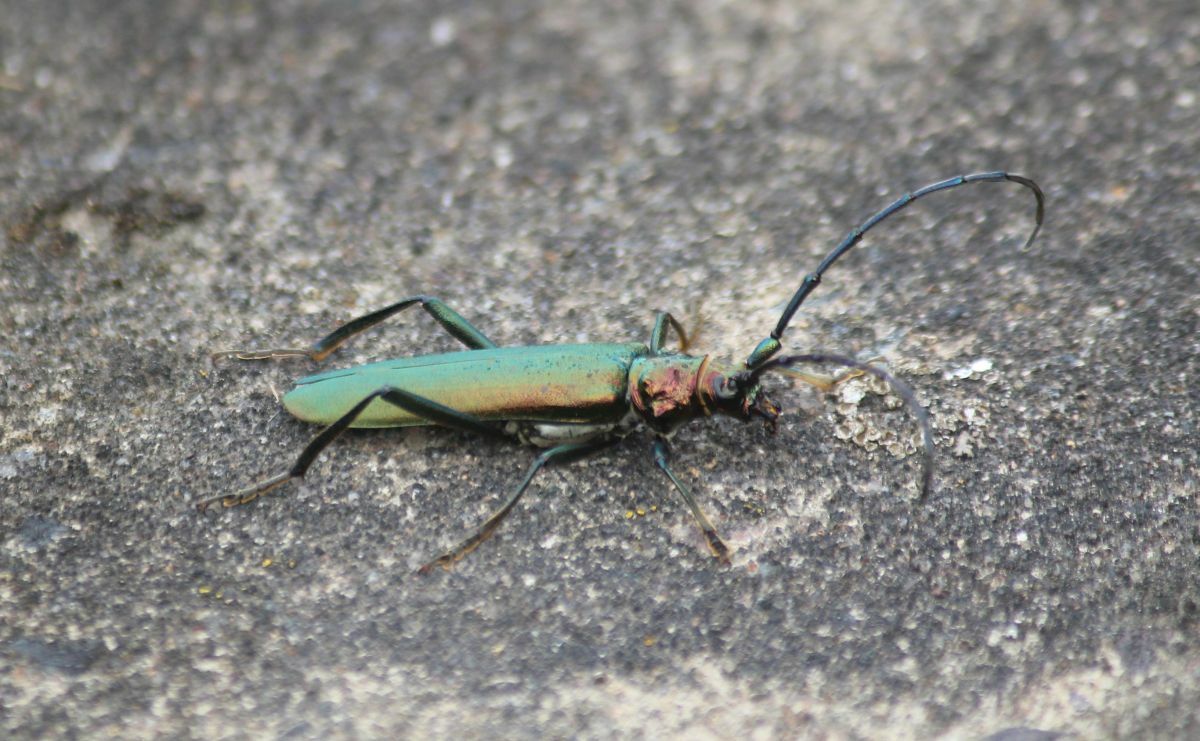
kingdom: Animalia
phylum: Arthropoda
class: Insecta
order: Coleoptera
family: Cerambycidae
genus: Aromia
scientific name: Aromia moschata
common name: Musk beetle
